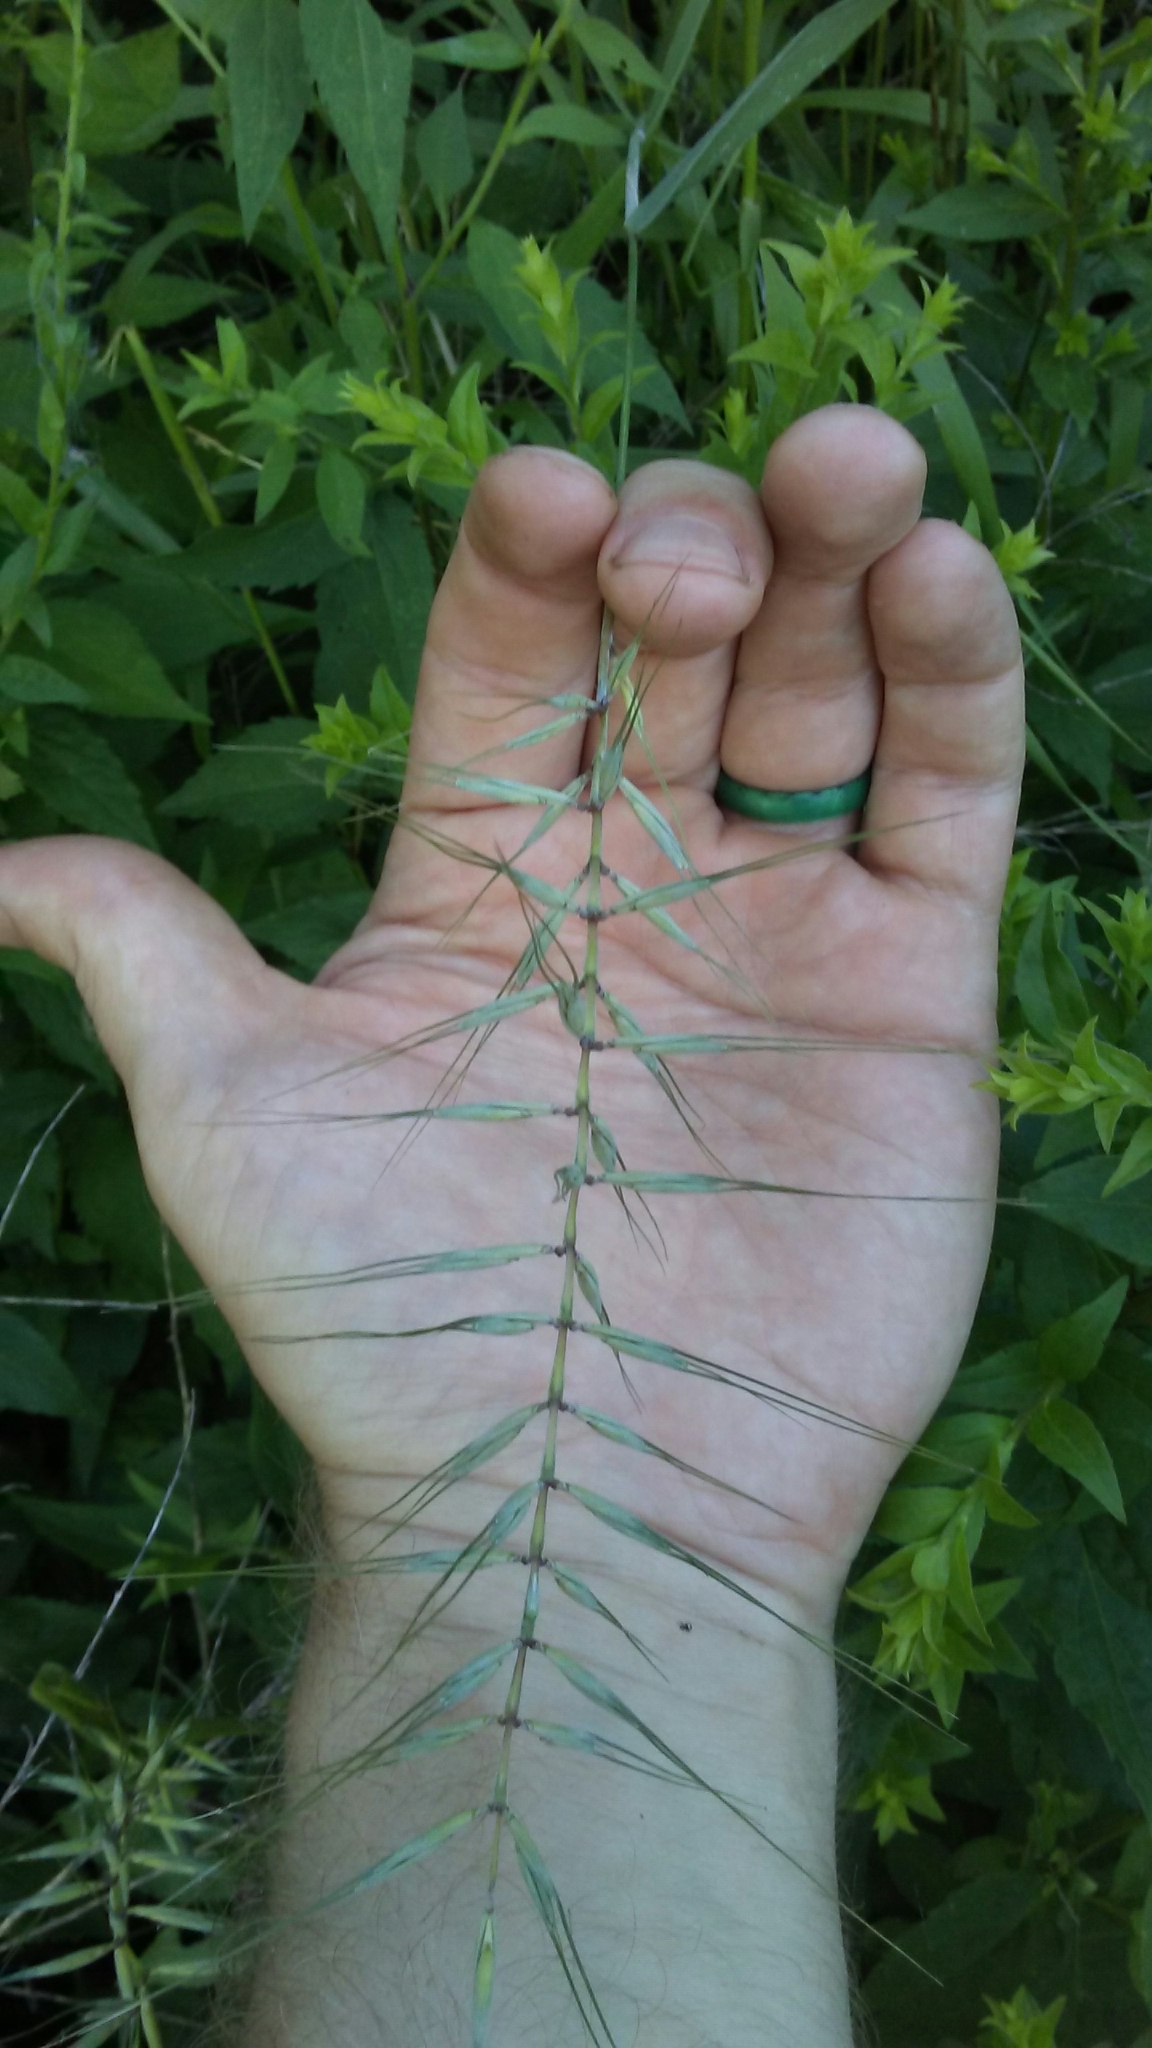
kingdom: Plantae
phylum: Tracheophyta
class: Liliopsida
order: Poales
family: Poaceae
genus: Elymus
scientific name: Elymus hystrix
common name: Bottlebrush grass
